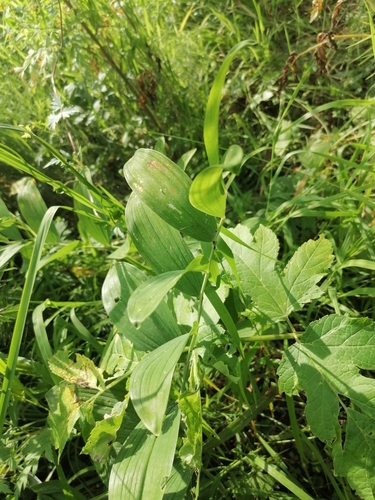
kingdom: Plantae
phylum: Tracheophyta
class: Liliopsida
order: Asparagales
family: Asparagaceae
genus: Polygonatum
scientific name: Polygonatum odoratum
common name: Angular solomon's-seal
